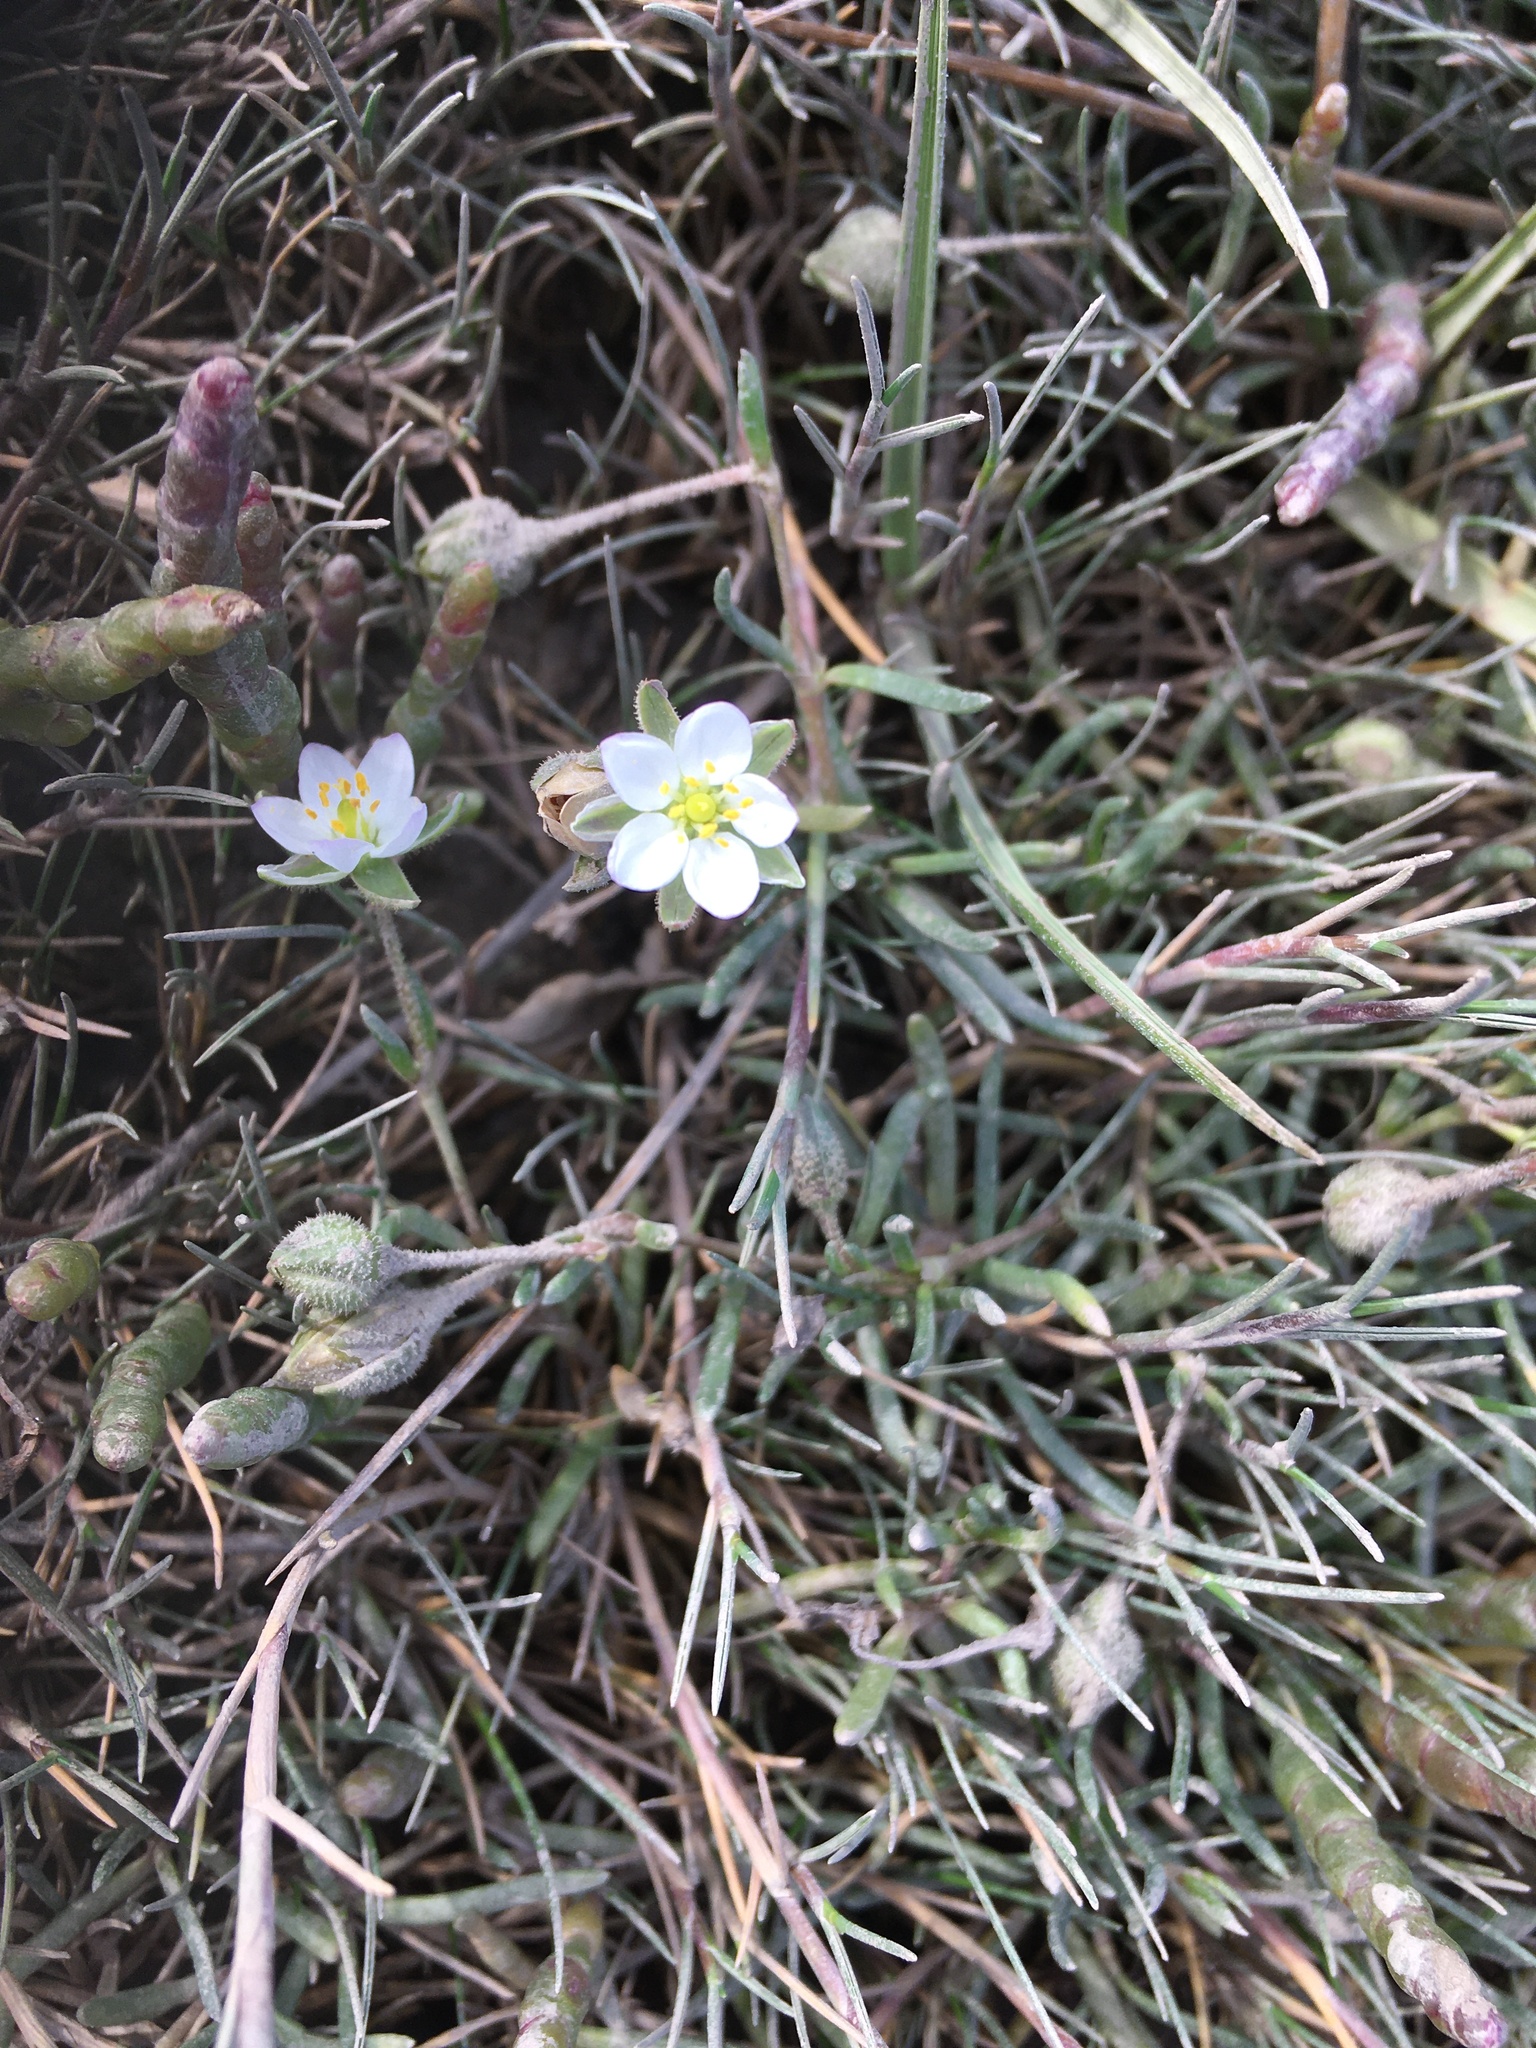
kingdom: Plantae
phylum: Tracheophyta
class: Magnoliopsida
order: Caryophyllales
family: Caryophyllaceae
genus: Spergularia
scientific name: Spergularia media
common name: Greater sea-spurrey
